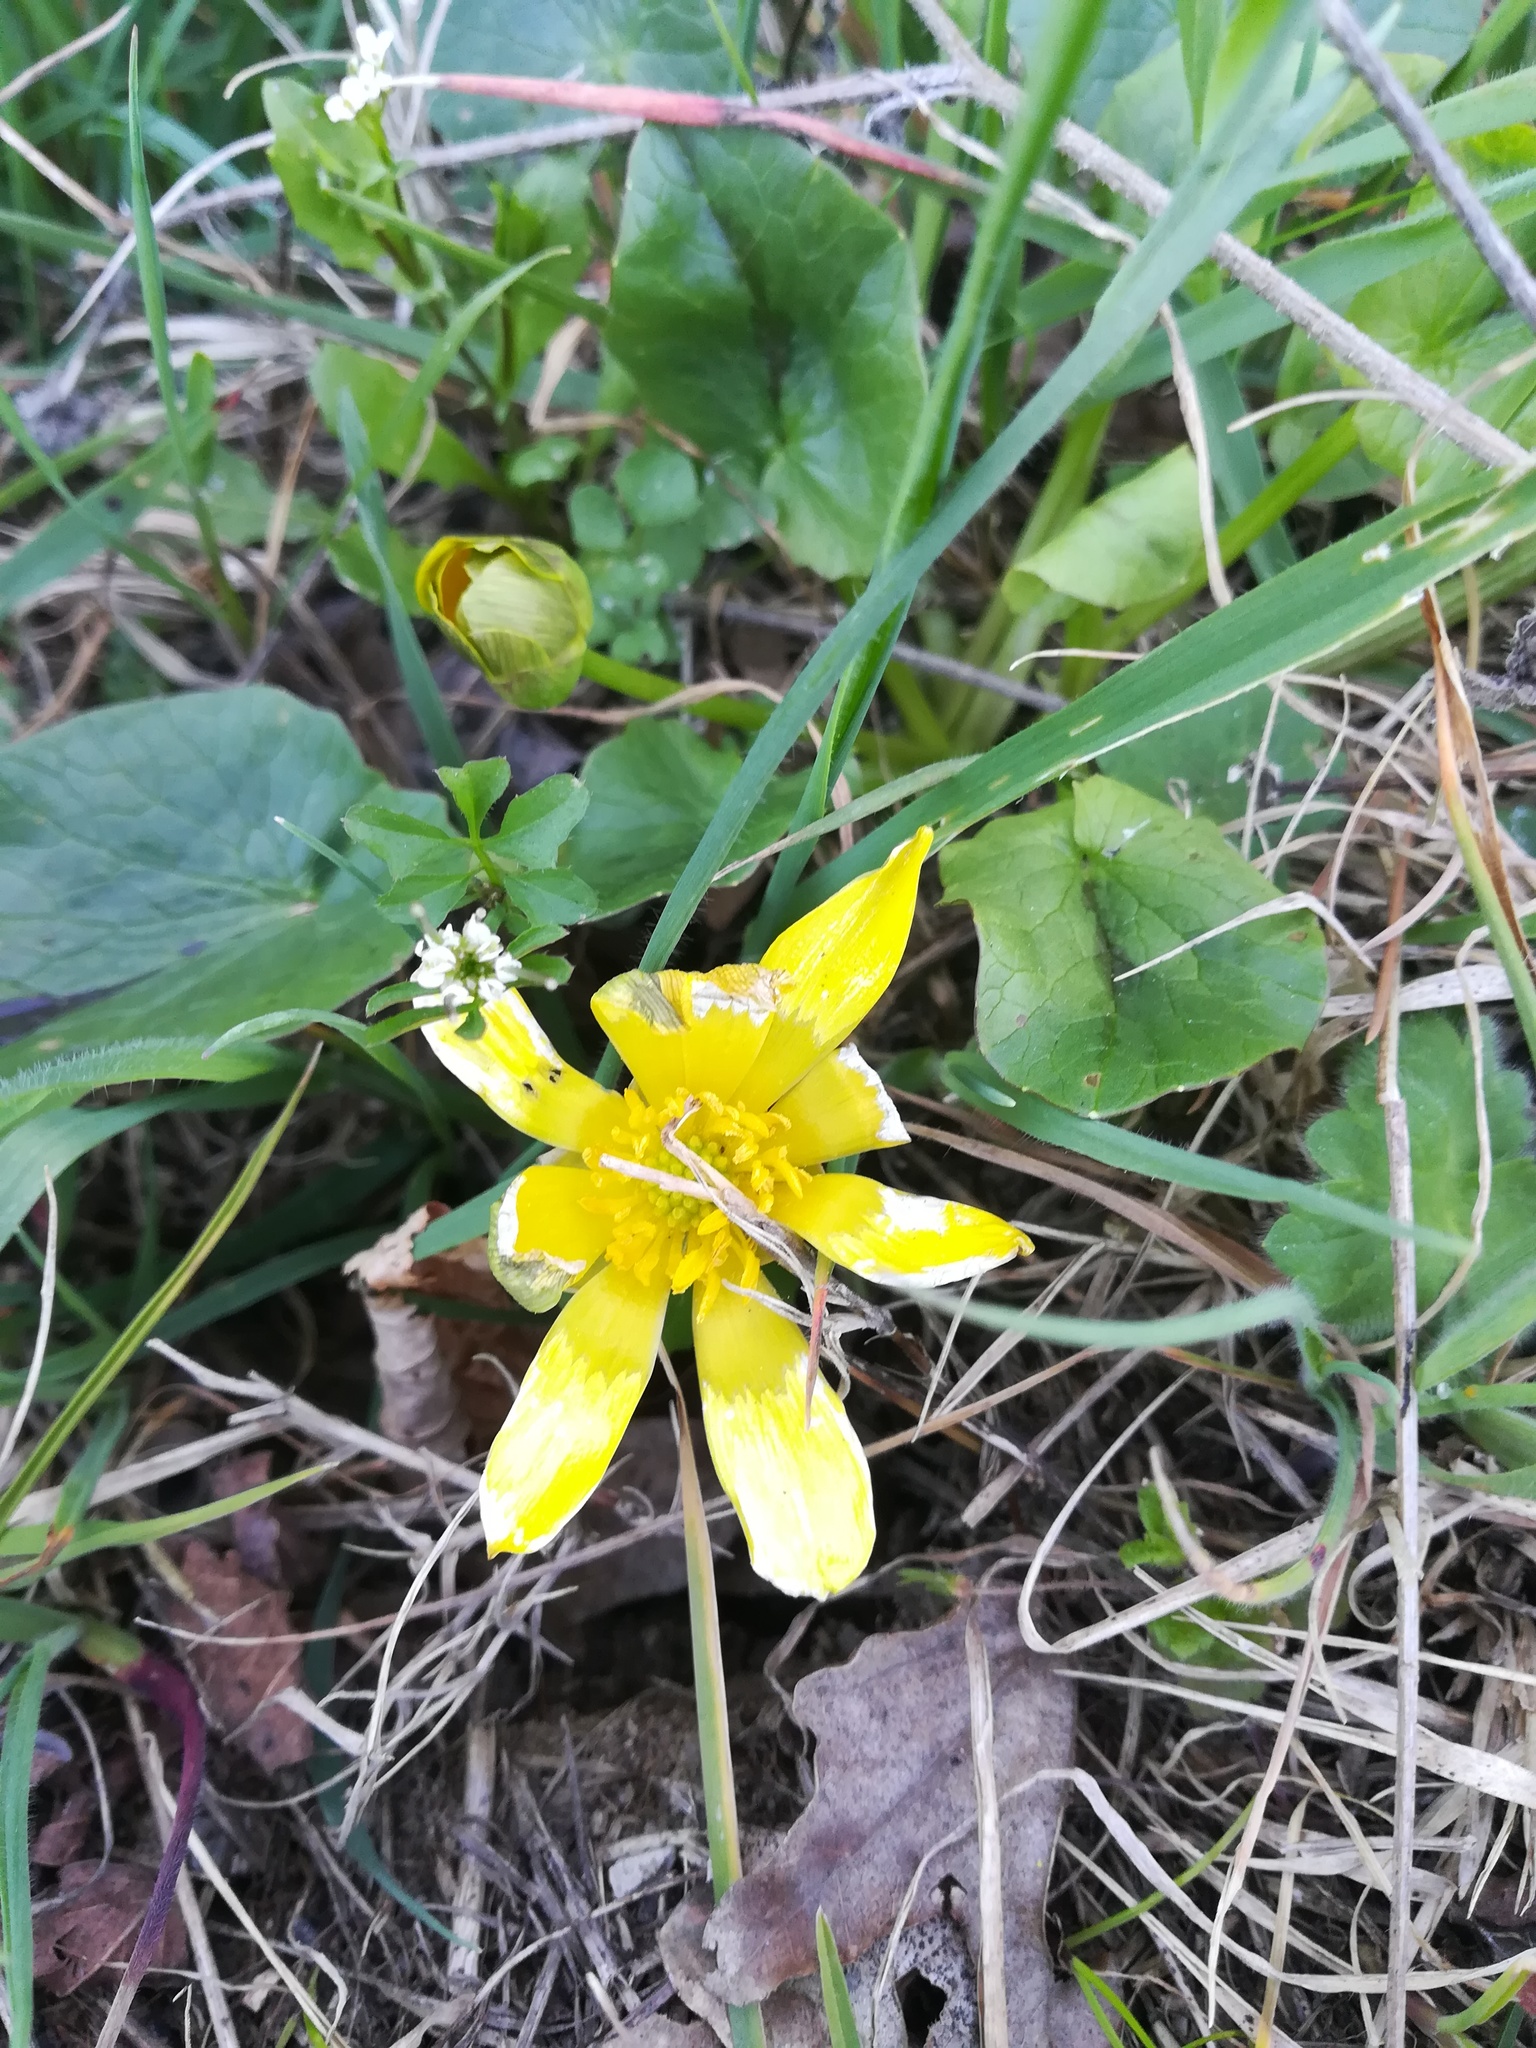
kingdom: Plantae
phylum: Tracheophyta
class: Magnoliopsida
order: Ranunculales
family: Ranunculaceae
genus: Ficaria
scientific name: Ficaria verna
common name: Lesser celandine
